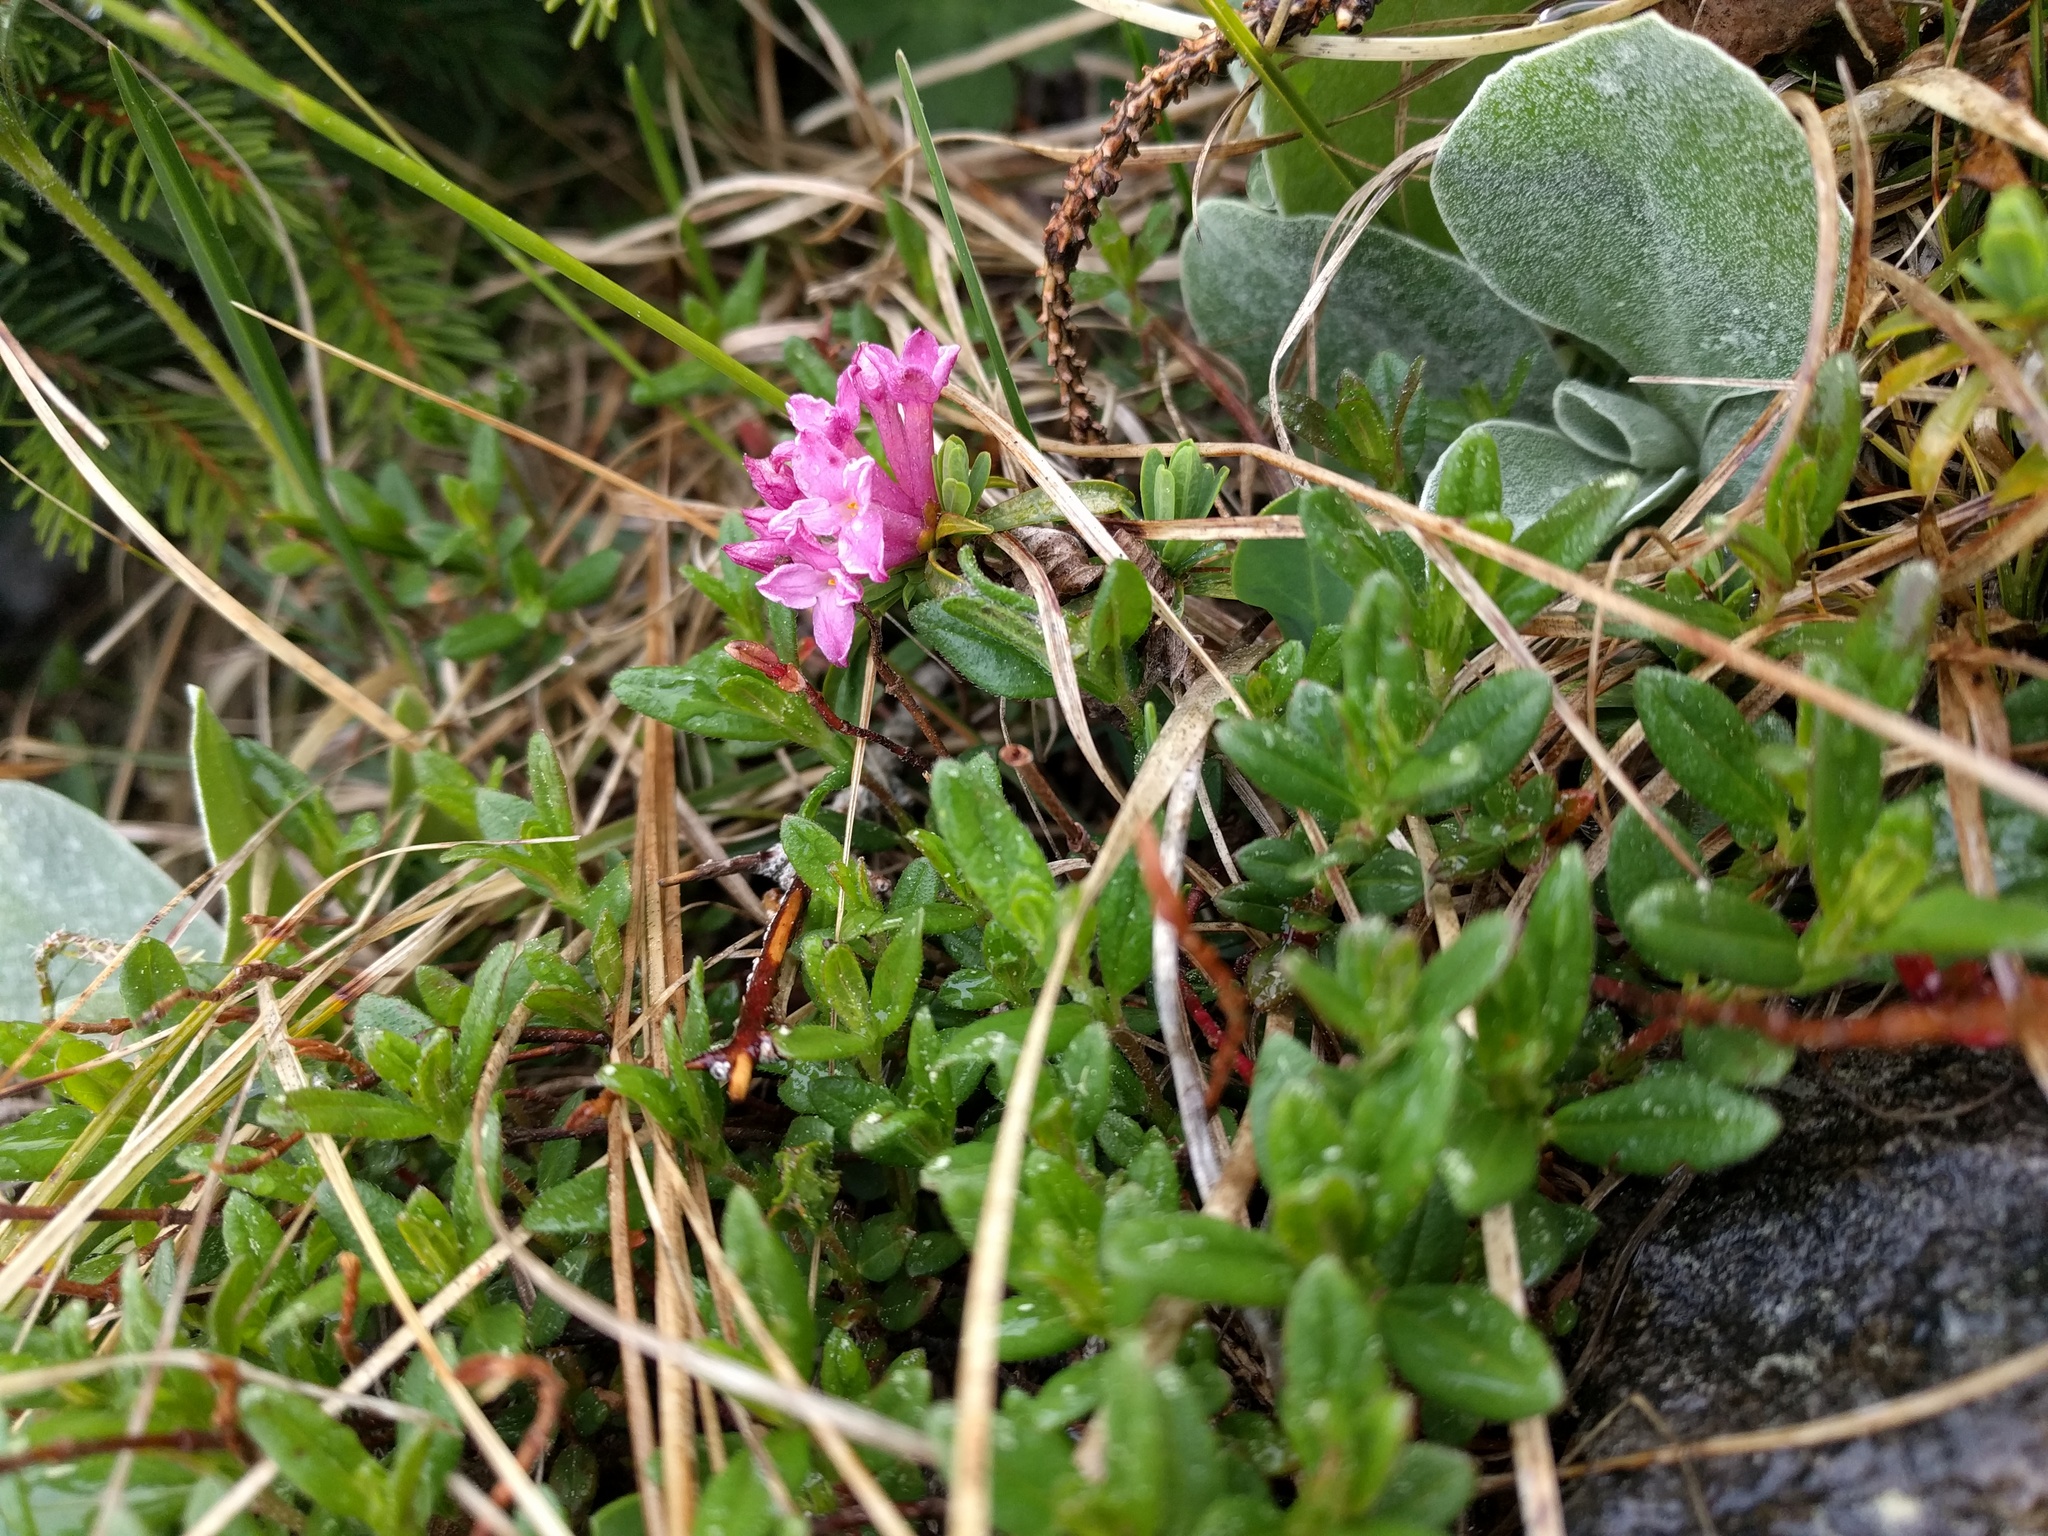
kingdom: Plantae
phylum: Tracheophyta
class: Magnoliopsida
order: Malvales
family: Thymelaeaceae
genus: Daphne
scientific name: Daphne striata
